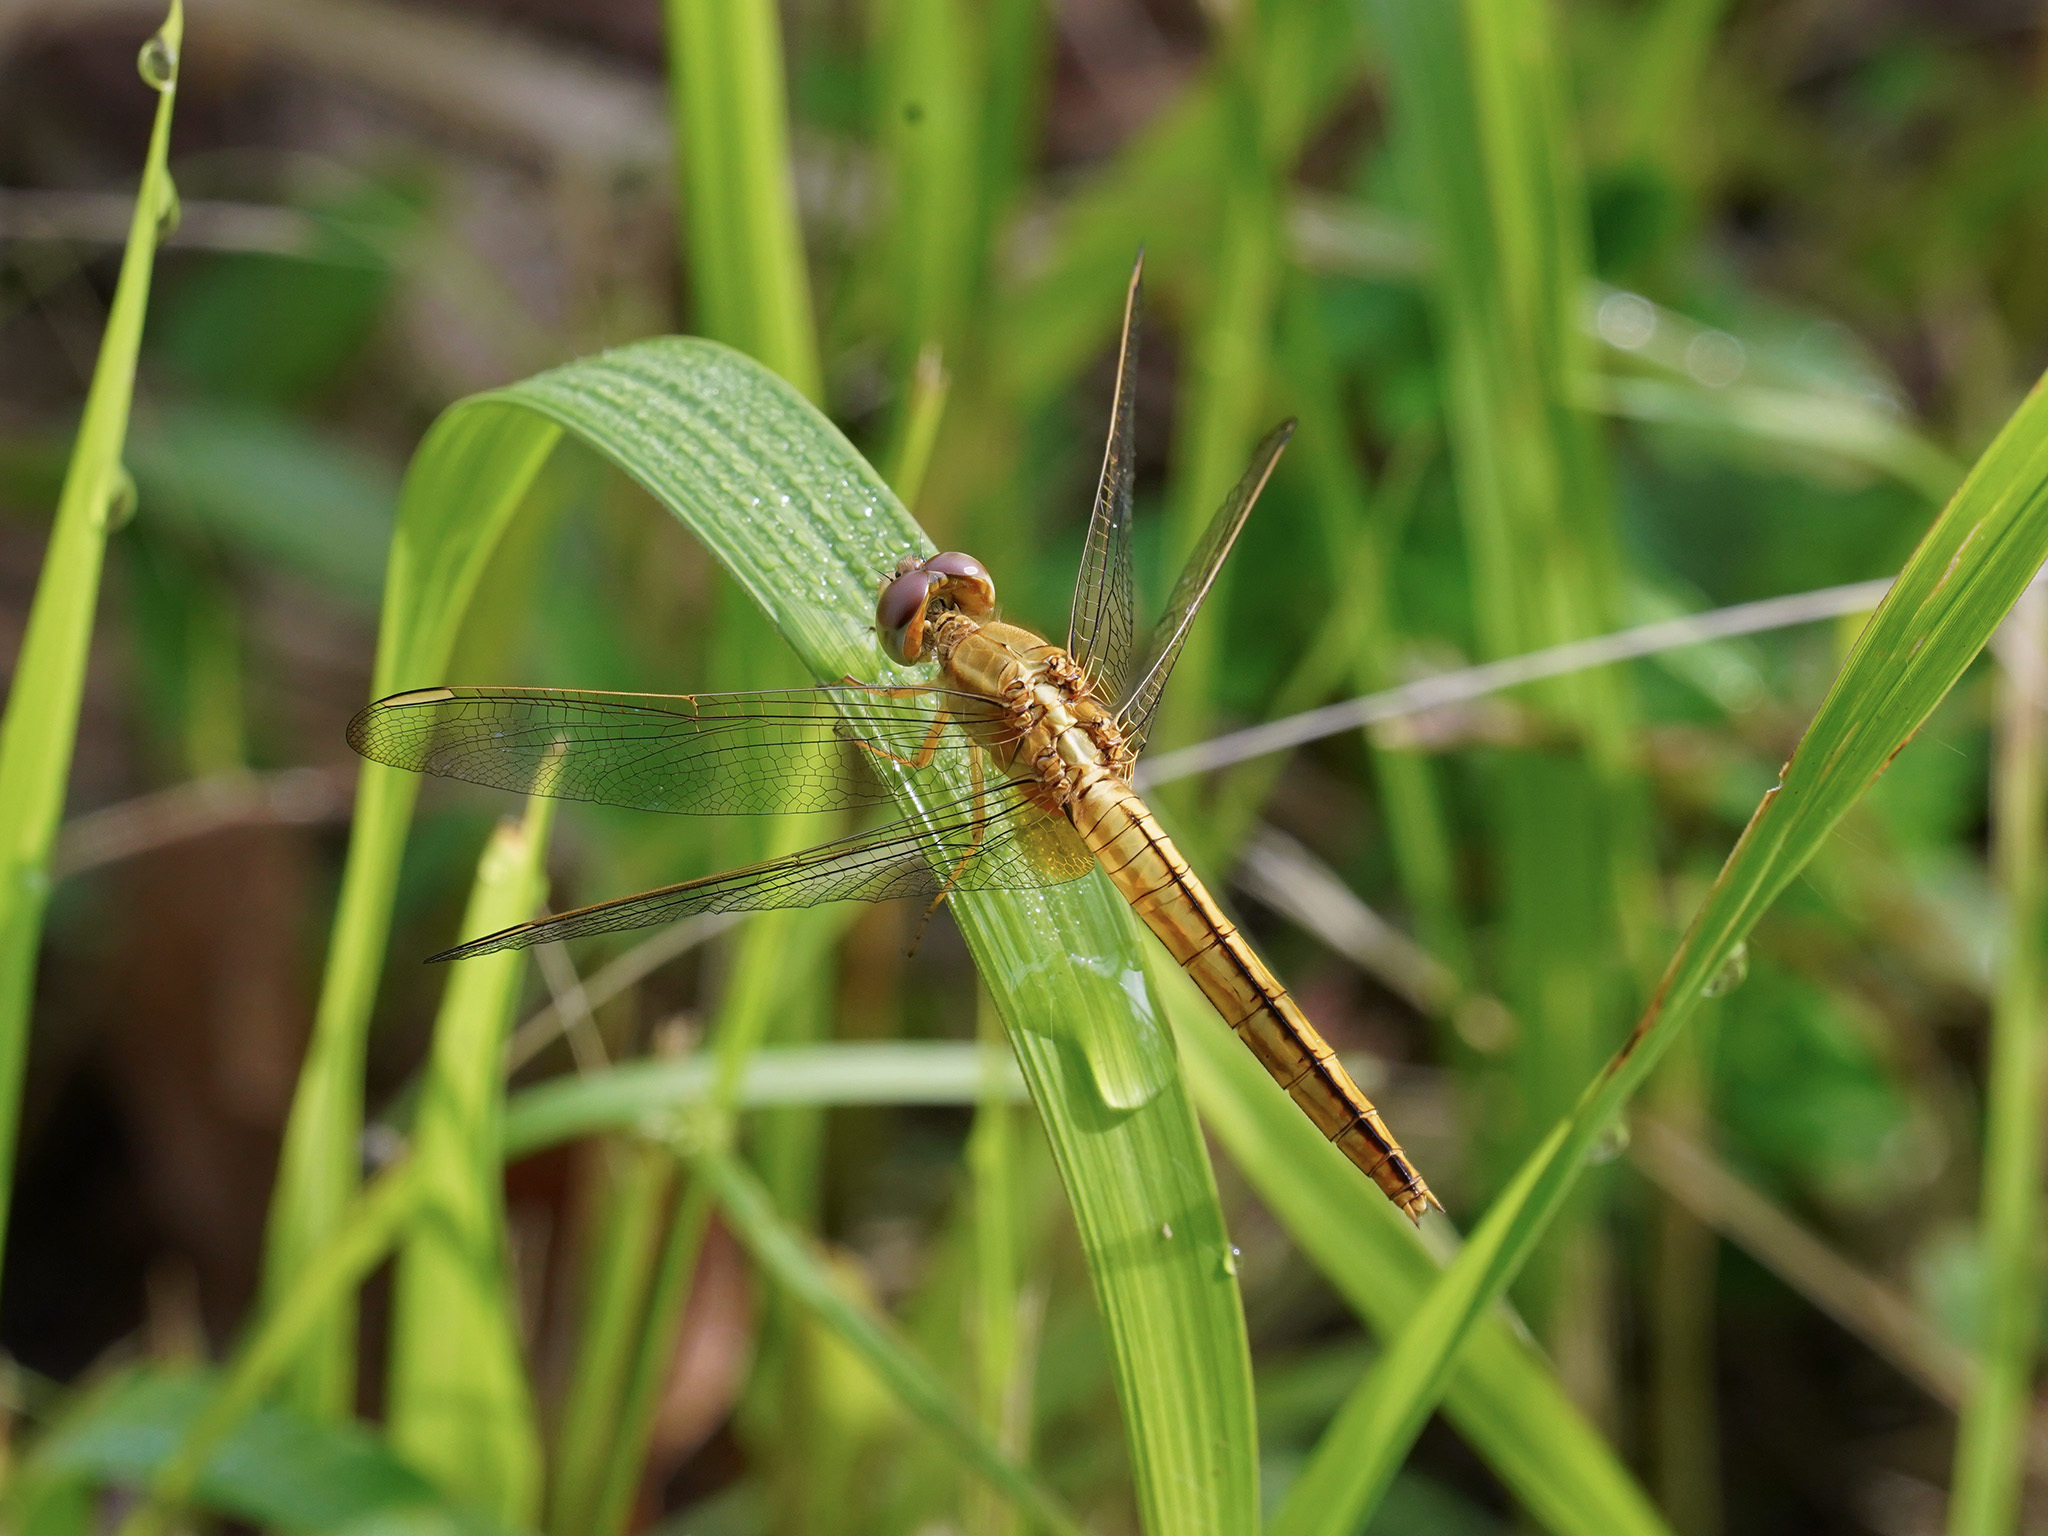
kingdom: Animalia
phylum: Arthropoda
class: Insecta
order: Odonata
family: Libellulidae
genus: Crocothemis
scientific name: Crocothemis servilia
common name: Scarlet skimmer
